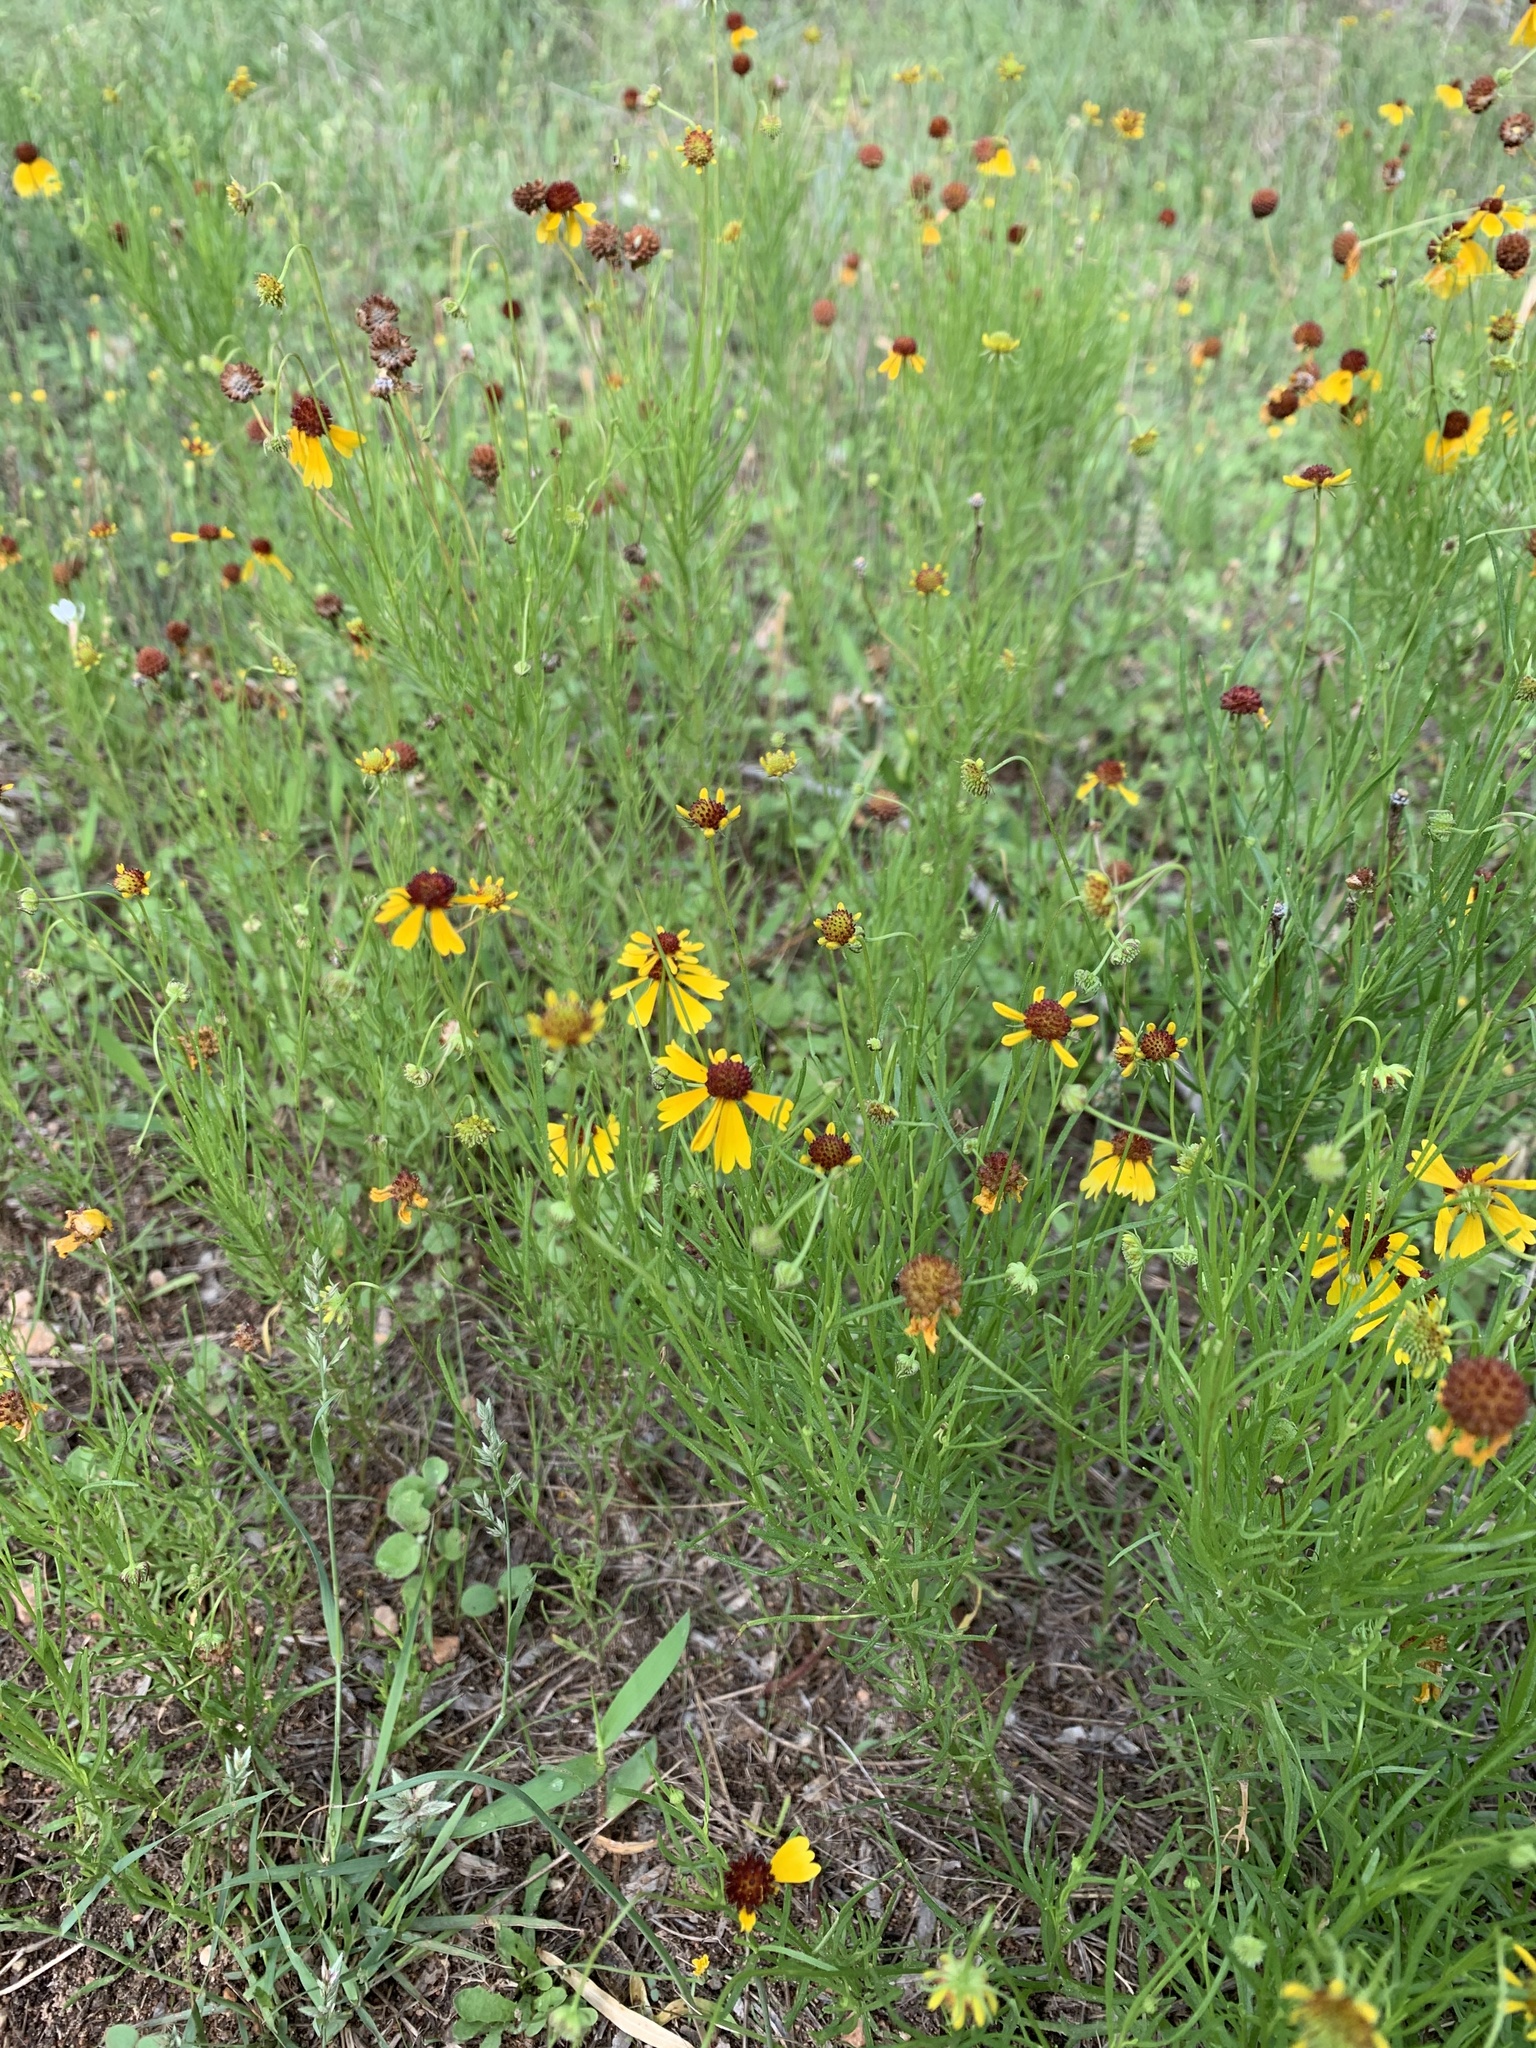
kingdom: Plantae
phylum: Tracheophyta
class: Magnoliopsida
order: Asterales
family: Asteraceae
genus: Helenium
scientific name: Helenium amarum
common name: Bitter sneezeweed
